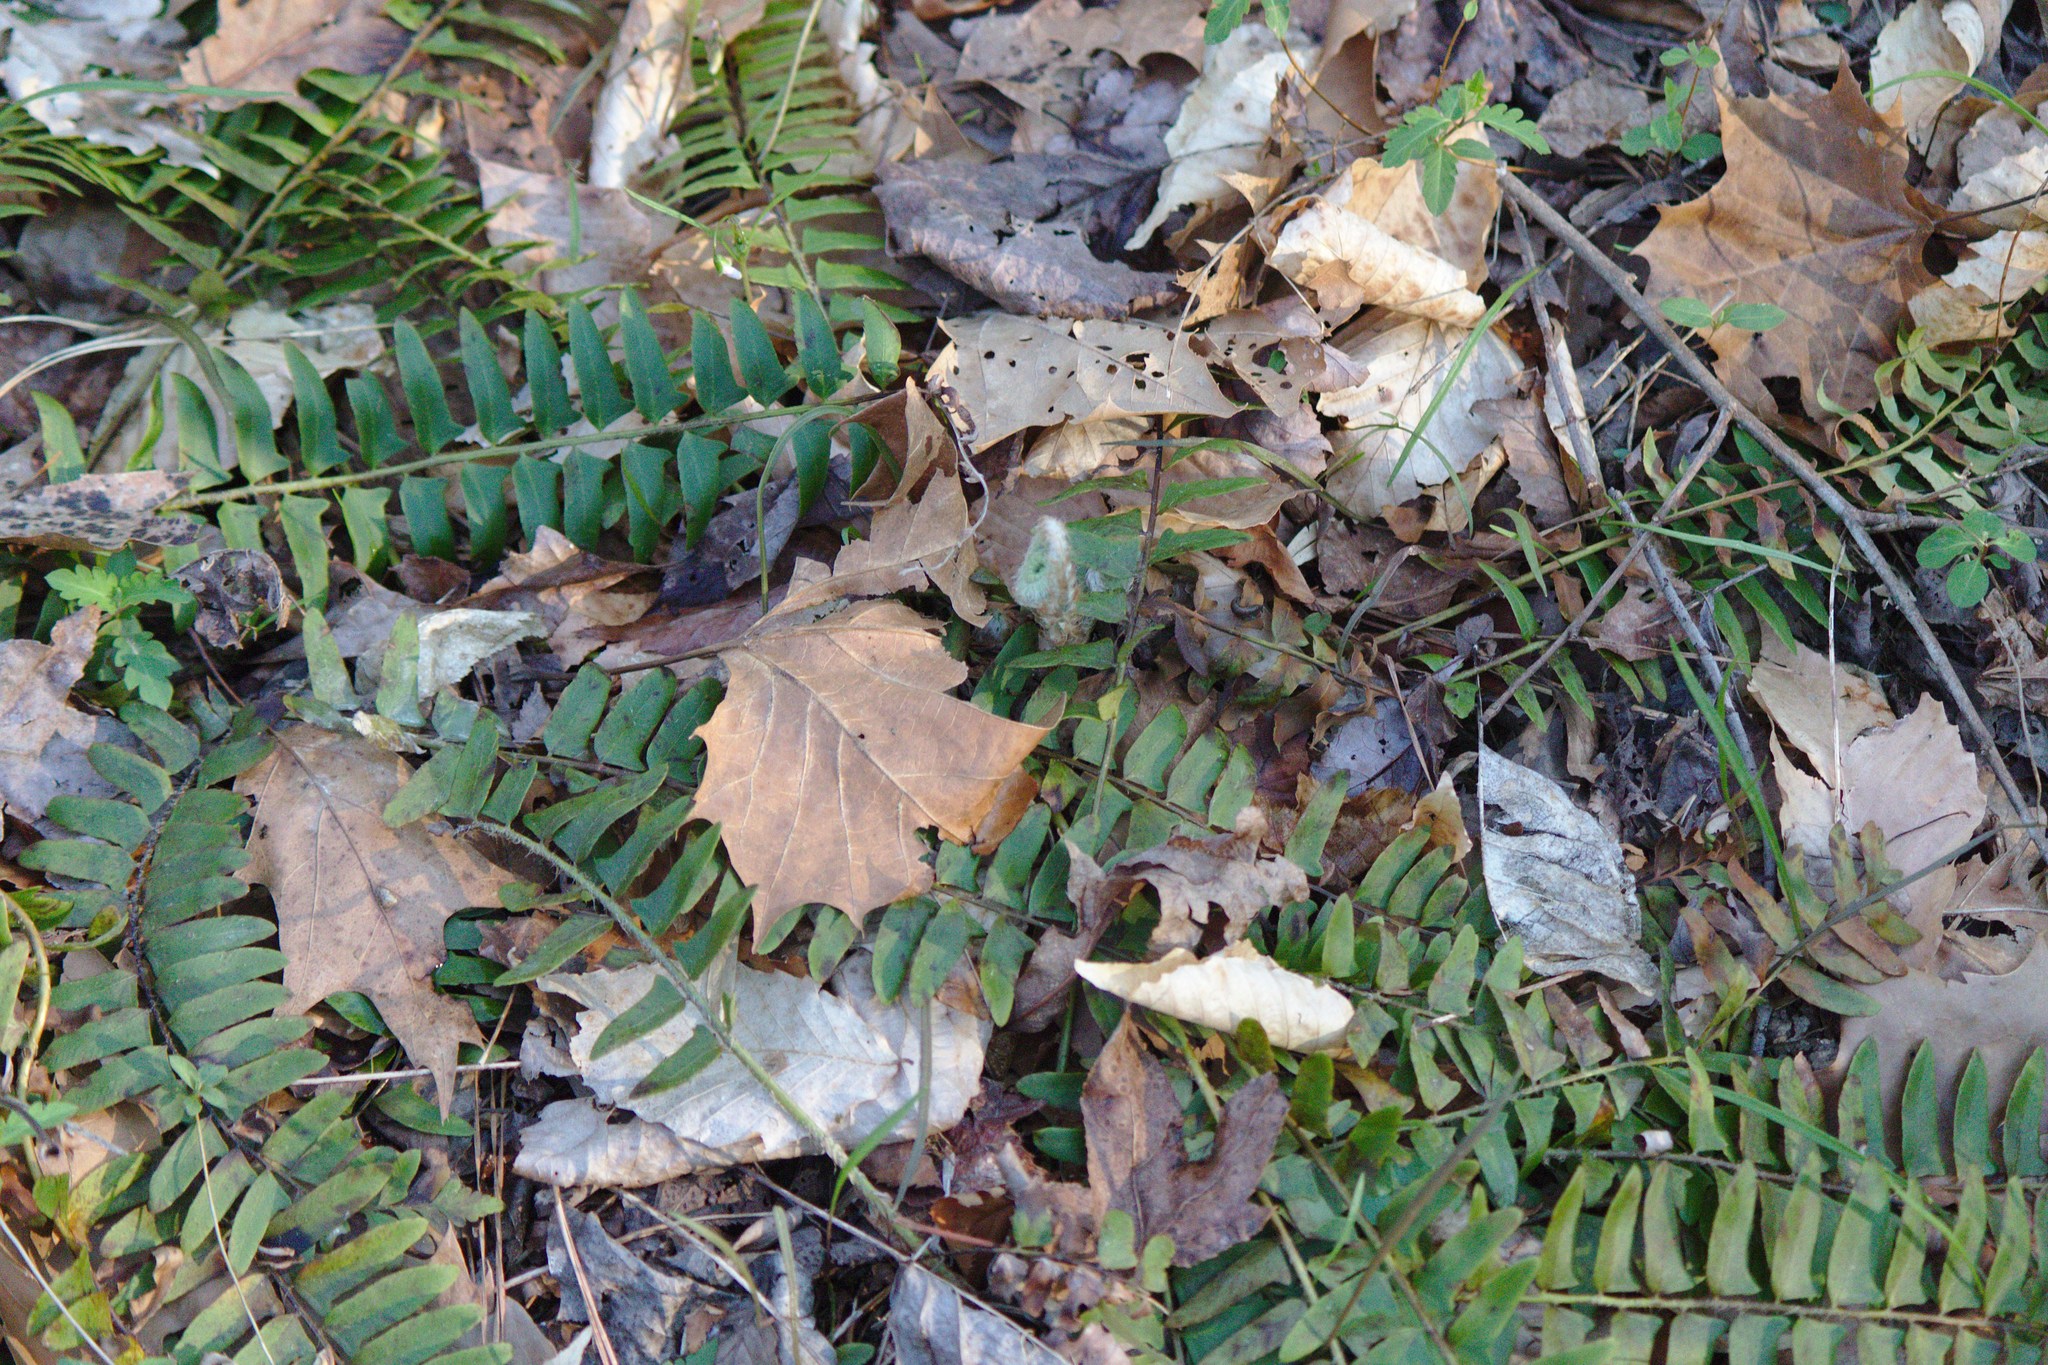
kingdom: Plantae
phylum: Tracheophyta
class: Polypodiopsida
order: Polypodiales
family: Dryopteridaceae
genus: Polystichum
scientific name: Polystichum acrostichoides
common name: Christmas fern
